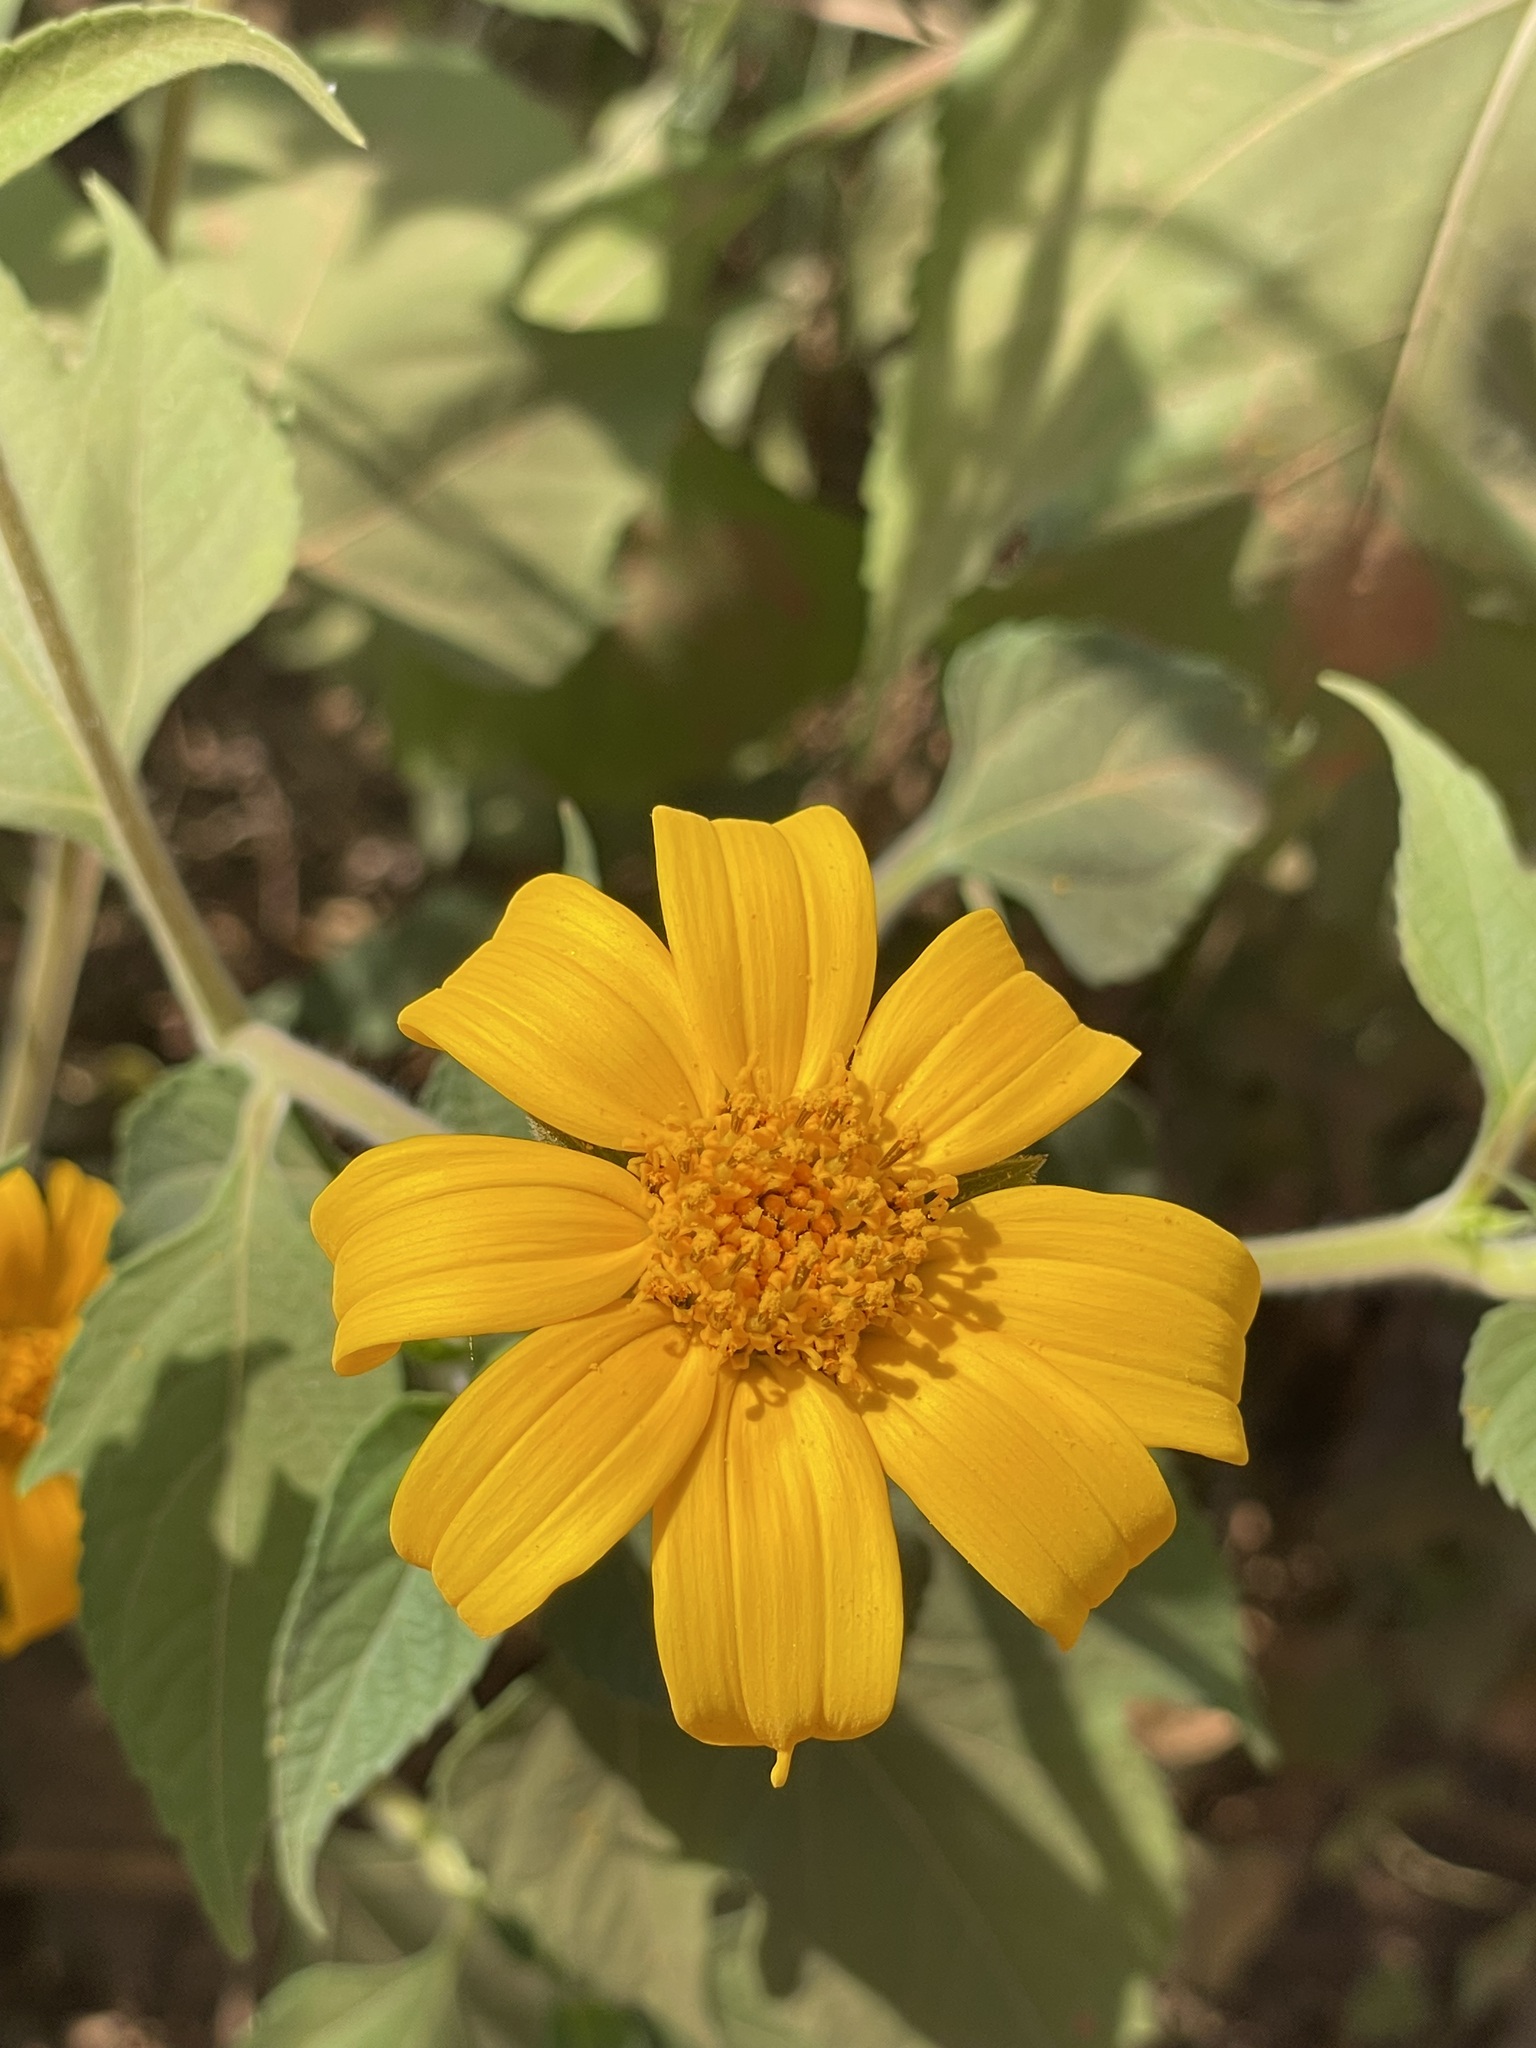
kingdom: Plantae
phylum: Tracheophyta
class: Magnoliopsida
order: Asterales
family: Asteraceae
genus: Tithonia
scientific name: Tithonia diversifolia
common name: Tree marigold
